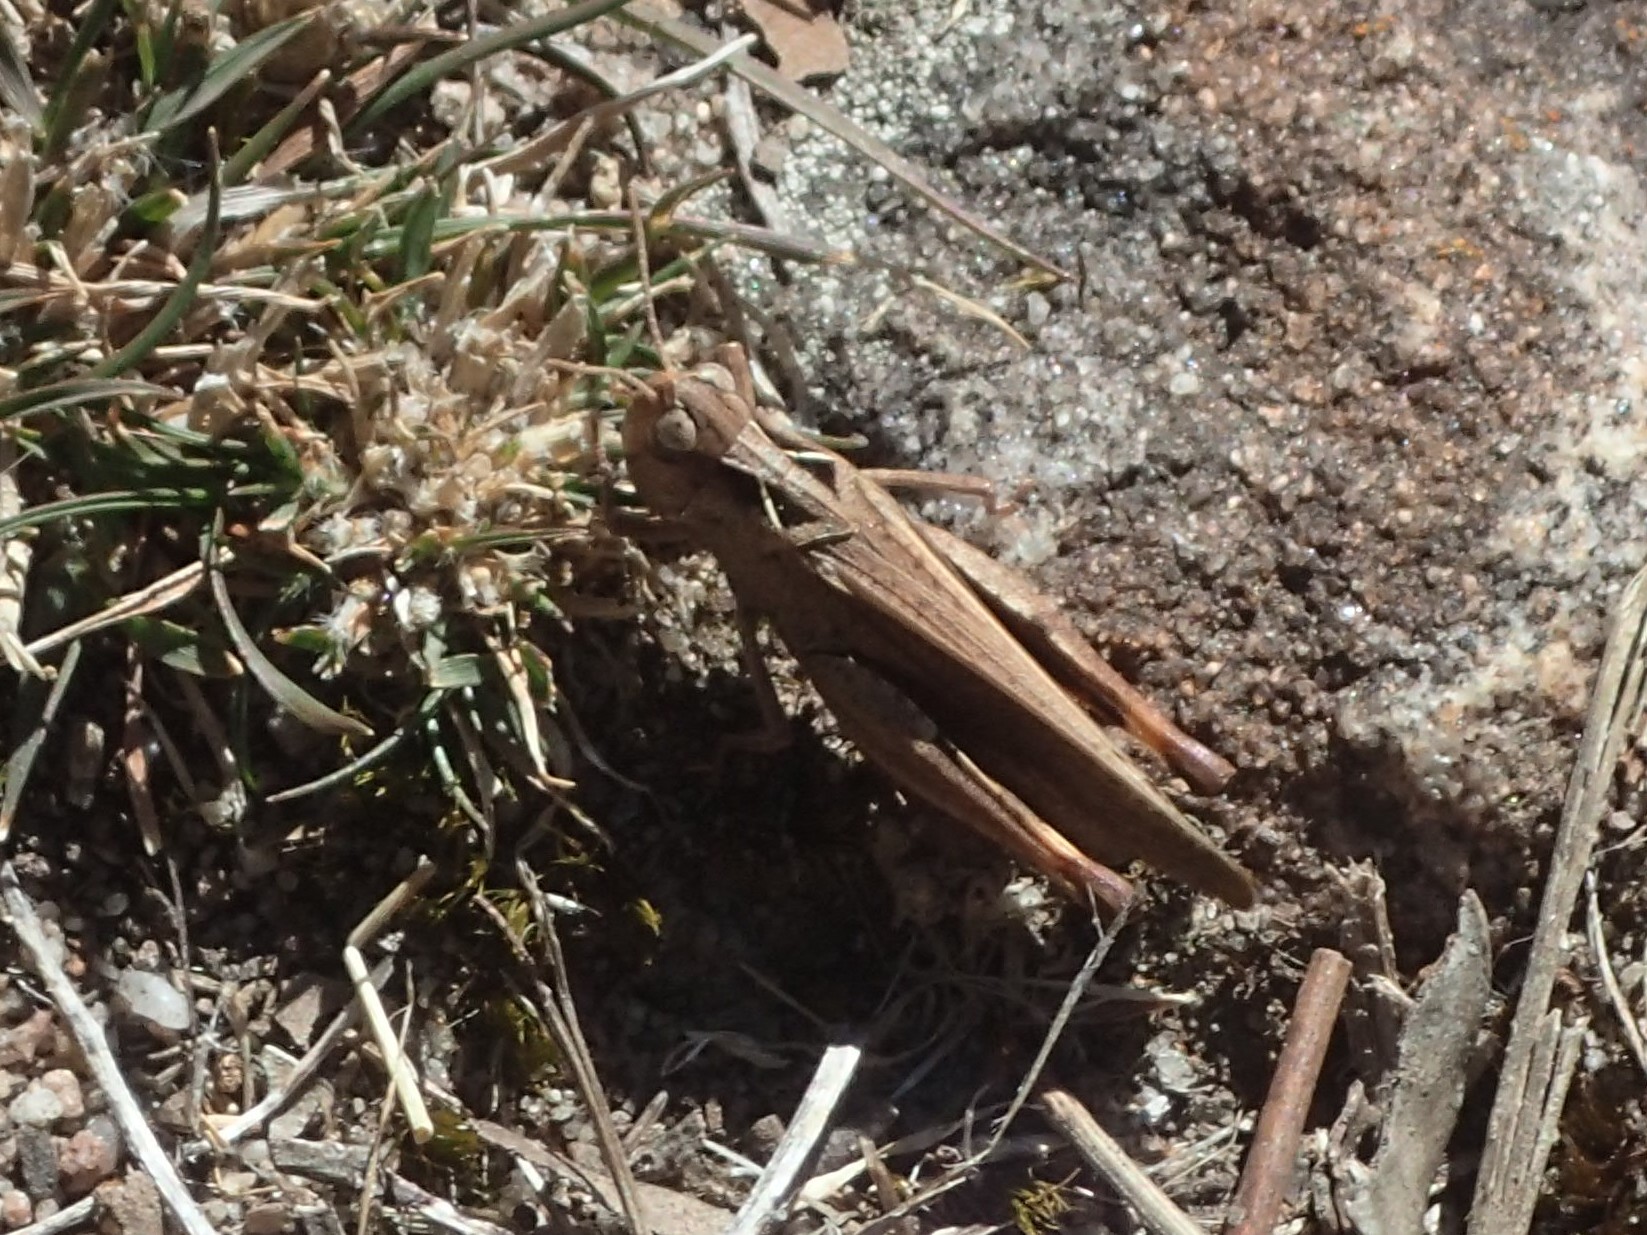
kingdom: Animalia
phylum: Arthropoda
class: Insecta
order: Orthoptera
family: Acrididae
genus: Cryptobothrus
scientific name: Cryptobothrus chrysophorus
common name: Golden bandwing
